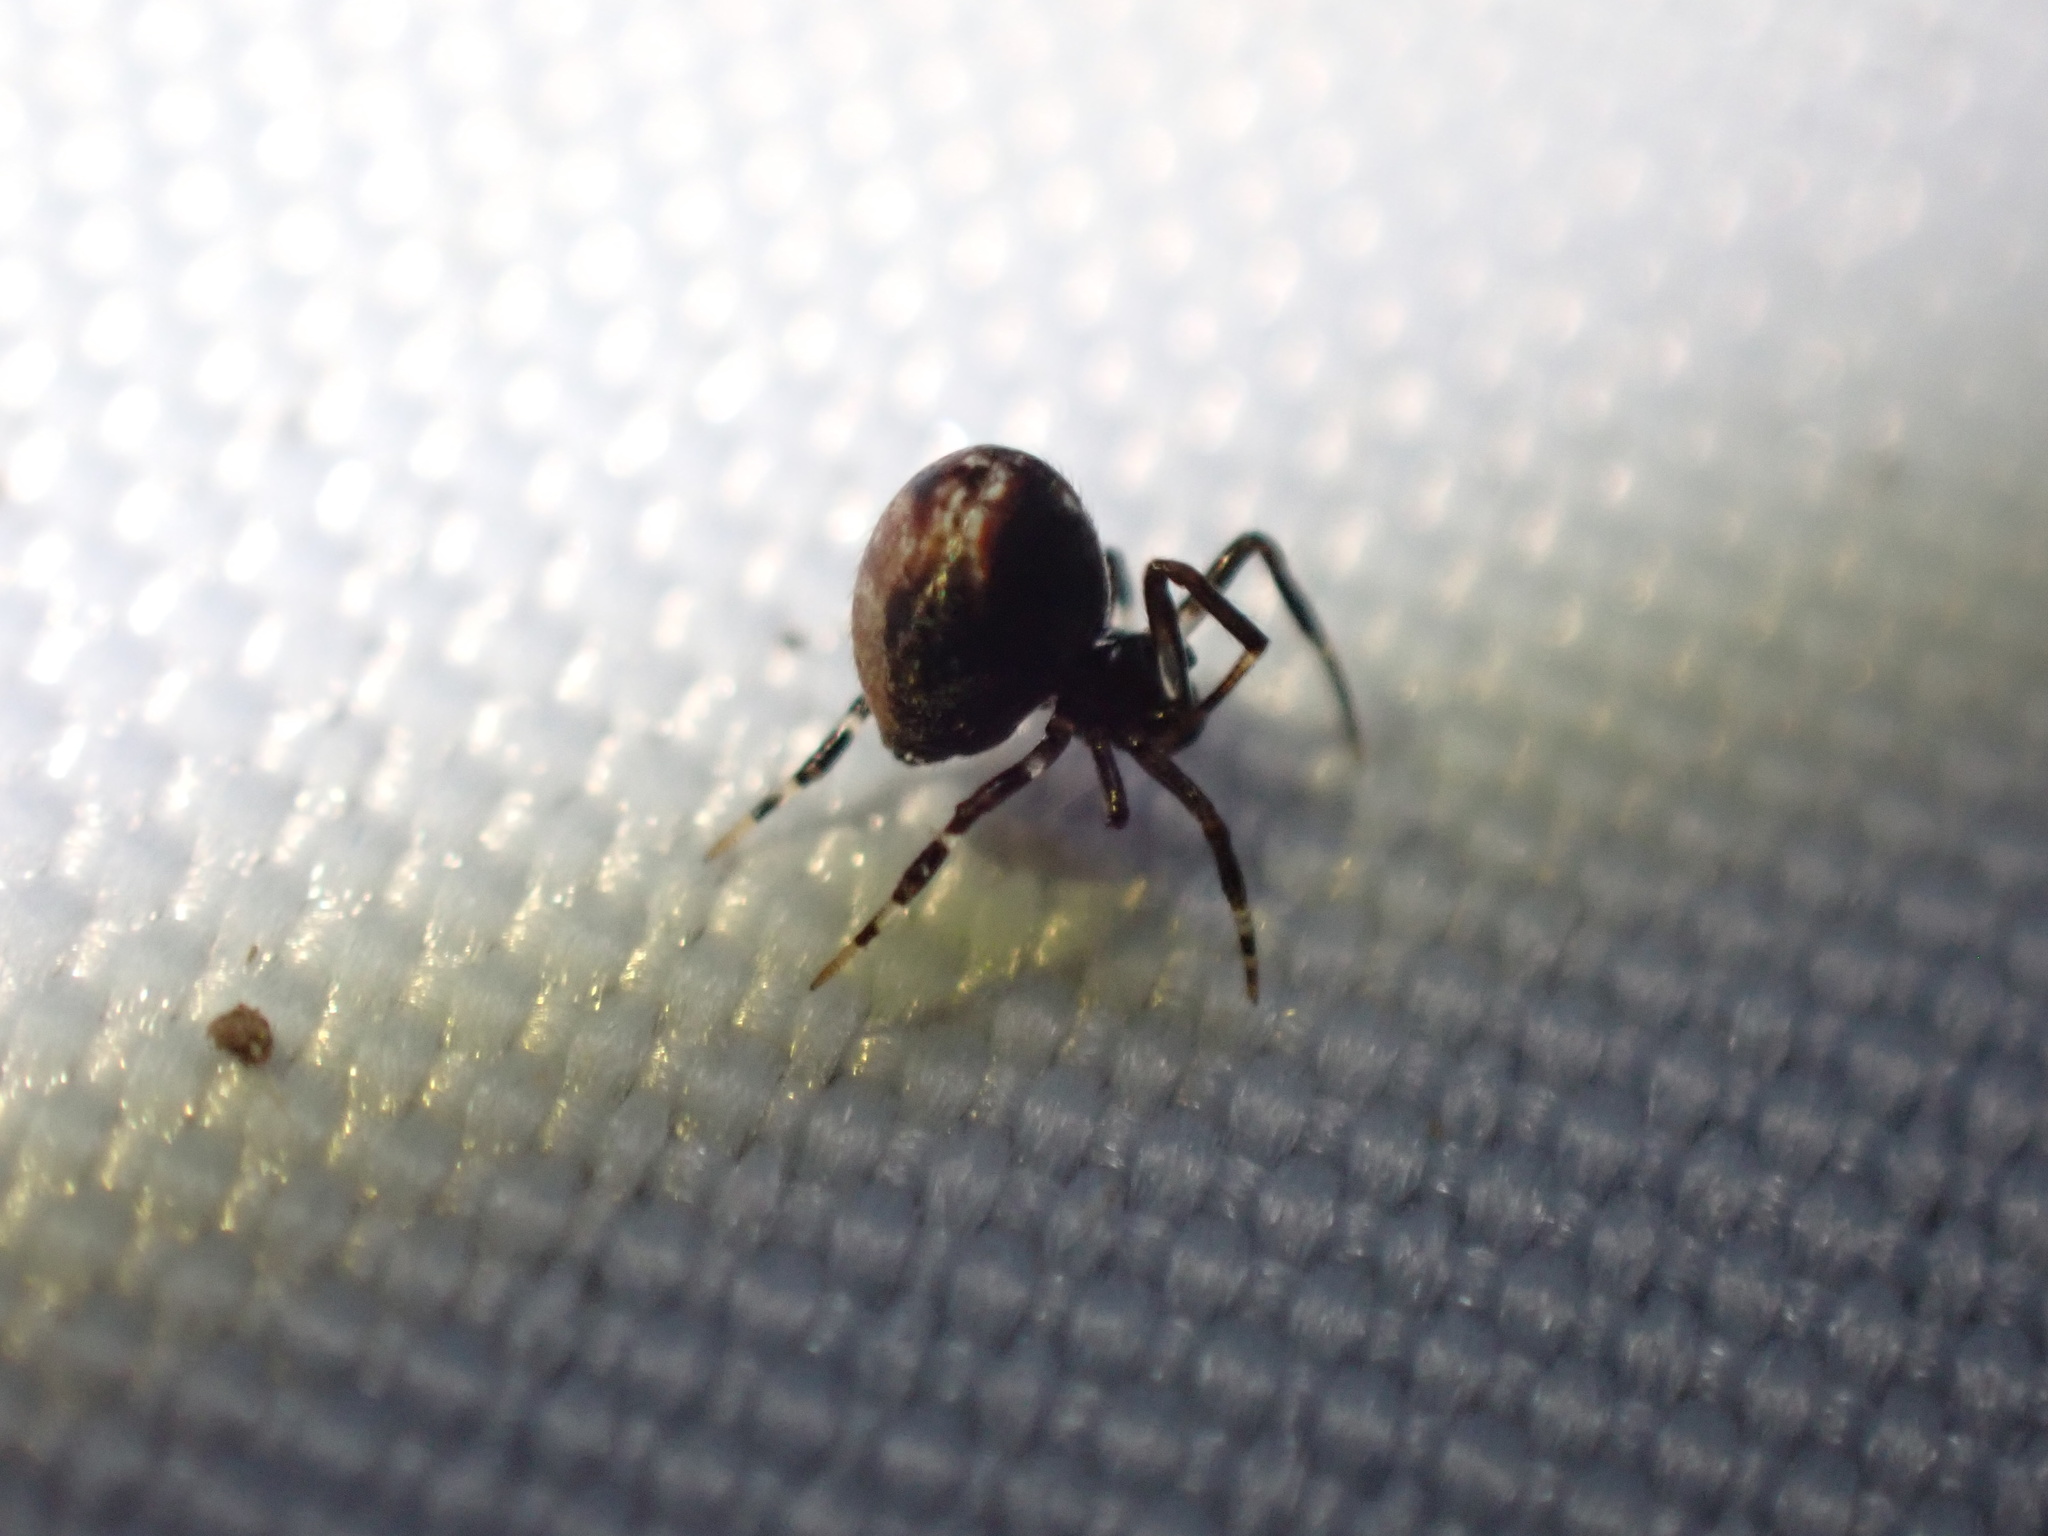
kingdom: Animalia
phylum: Arthropoda
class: Arachnida
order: Araneae
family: Theridiidae
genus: Parasteatoda
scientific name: Parasteatoda lunata
